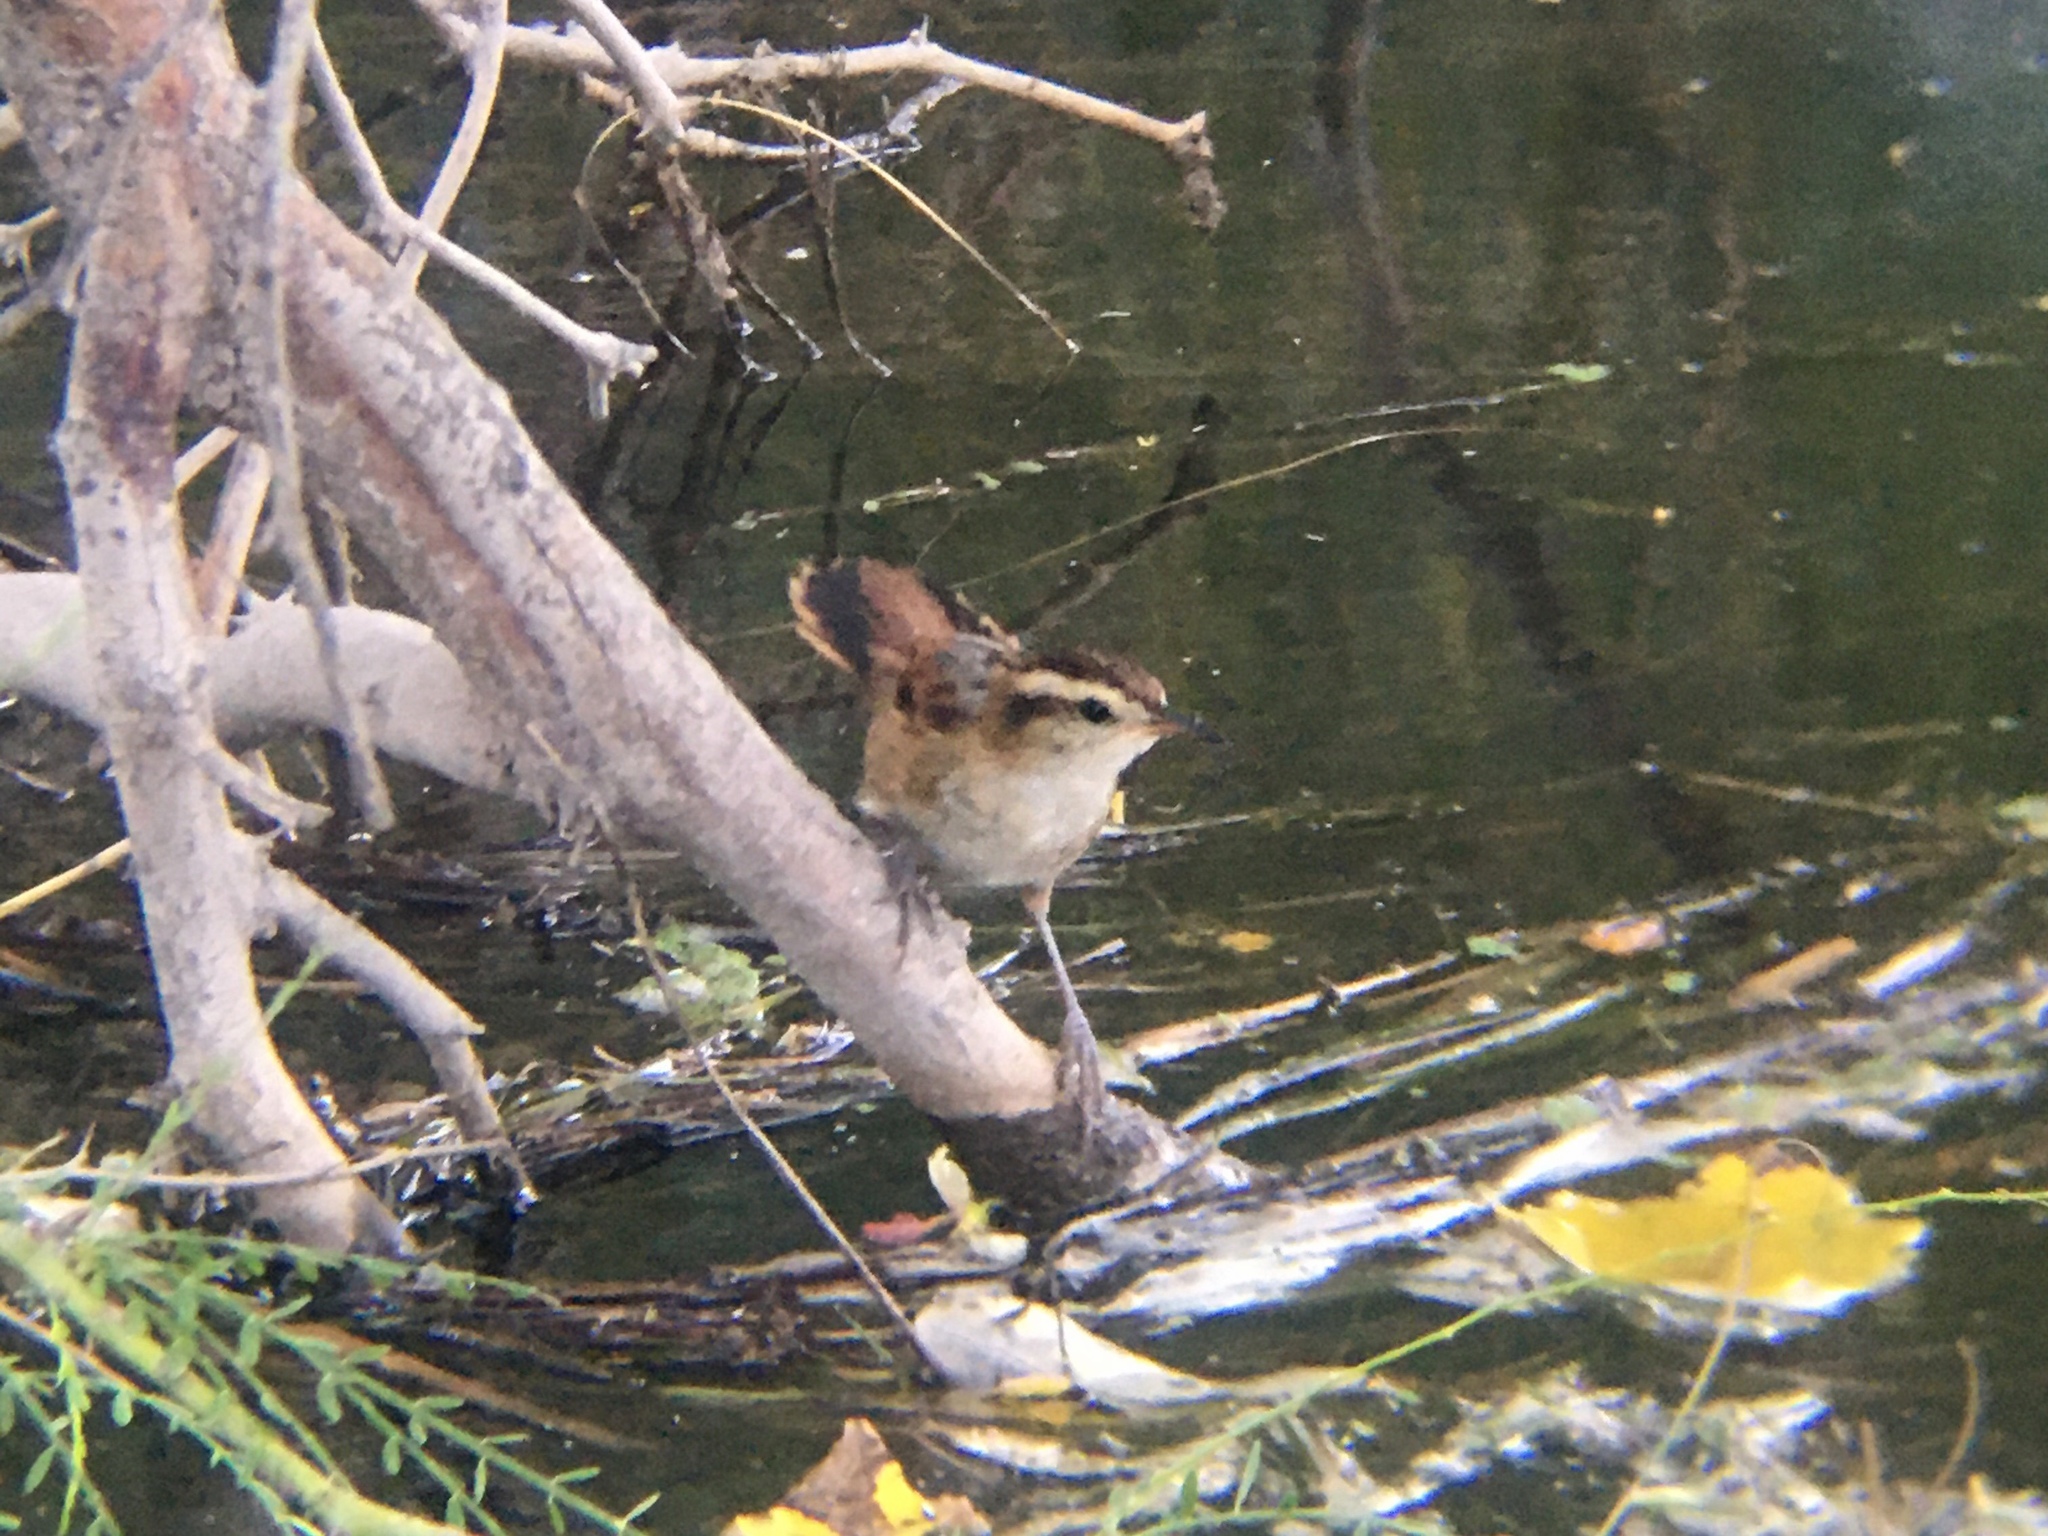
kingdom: Animalia
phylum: Chordata
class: Aves
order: Passeriformes
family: Furnariidae
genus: Phleocryptes
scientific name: Phleocryptes melanops
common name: Wren-like rushbird
